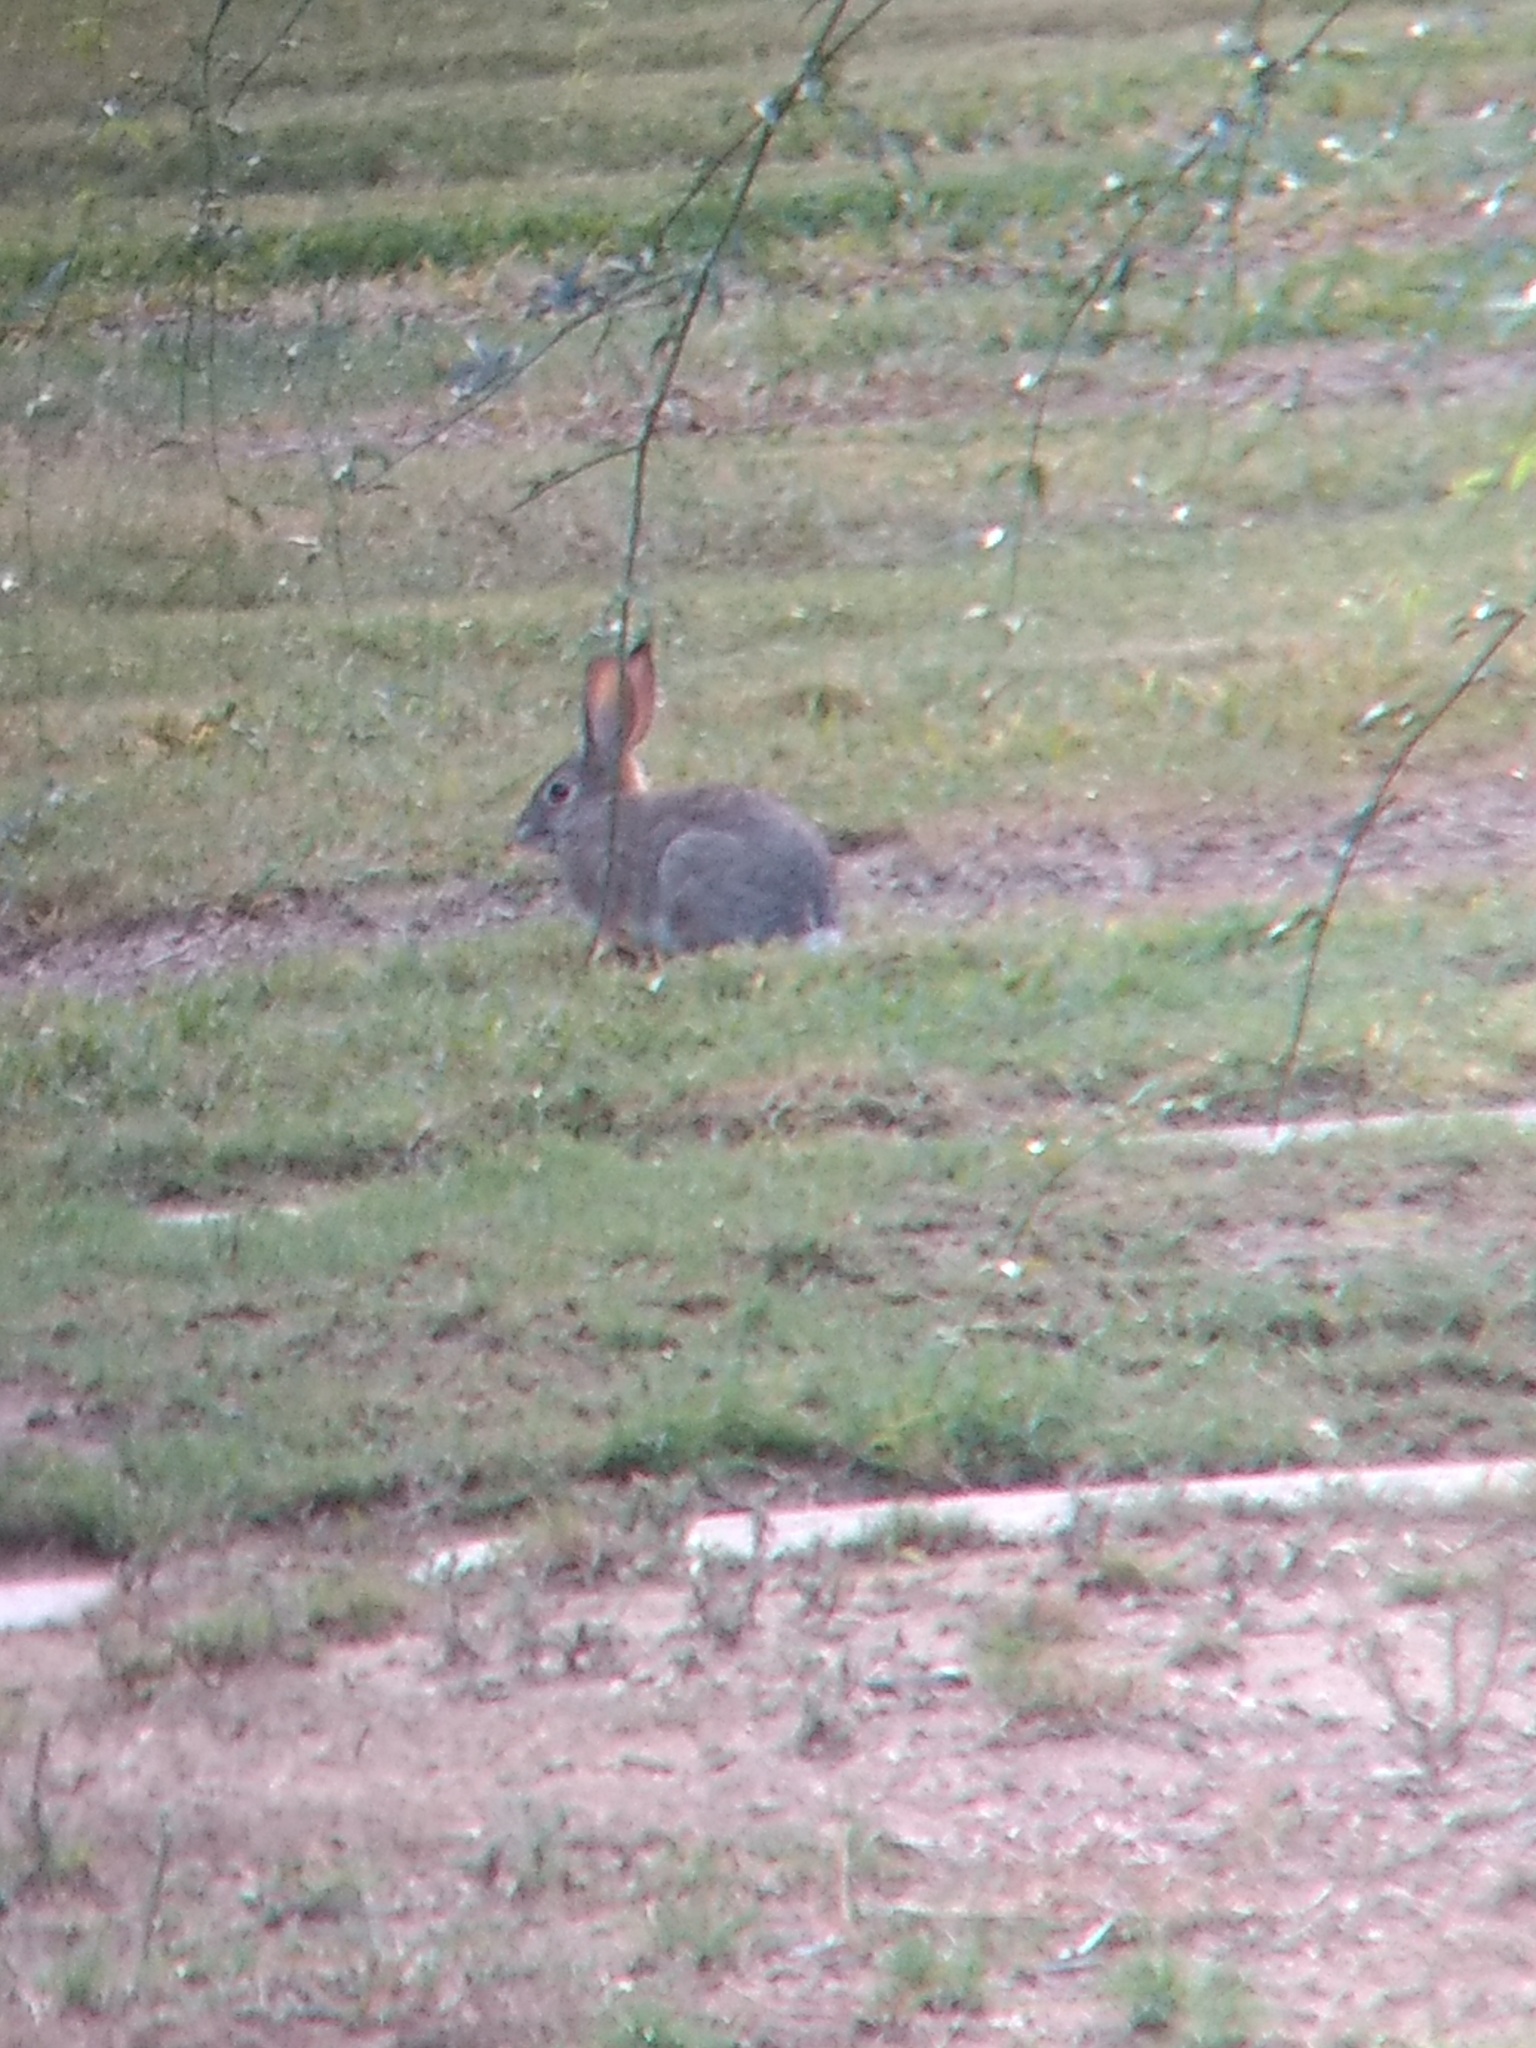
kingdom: Animalia
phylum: Chordata
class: Mammalia
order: Lagomorpha
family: Leporidae
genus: Sylvilagus
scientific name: Sylvilagus audubonii
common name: Desert cottontail
